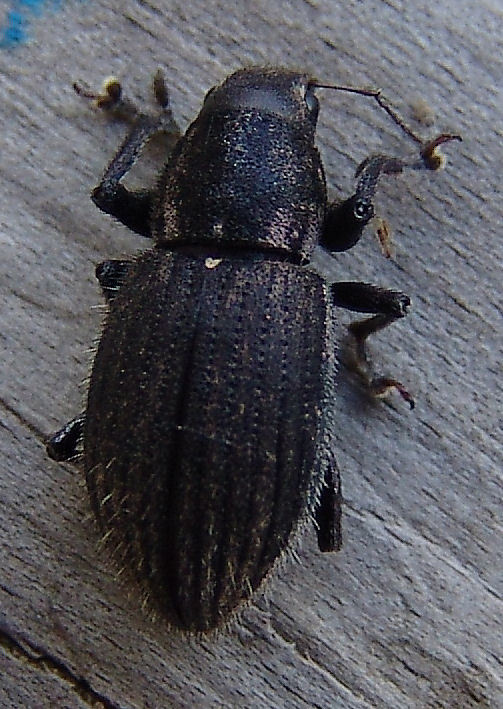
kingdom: Animalia
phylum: Arthropoda
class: Insecta
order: Coleoptera
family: Curculionidae
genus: Naupactus
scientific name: Naupactus leucoloma
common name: Whitefringed beetle
